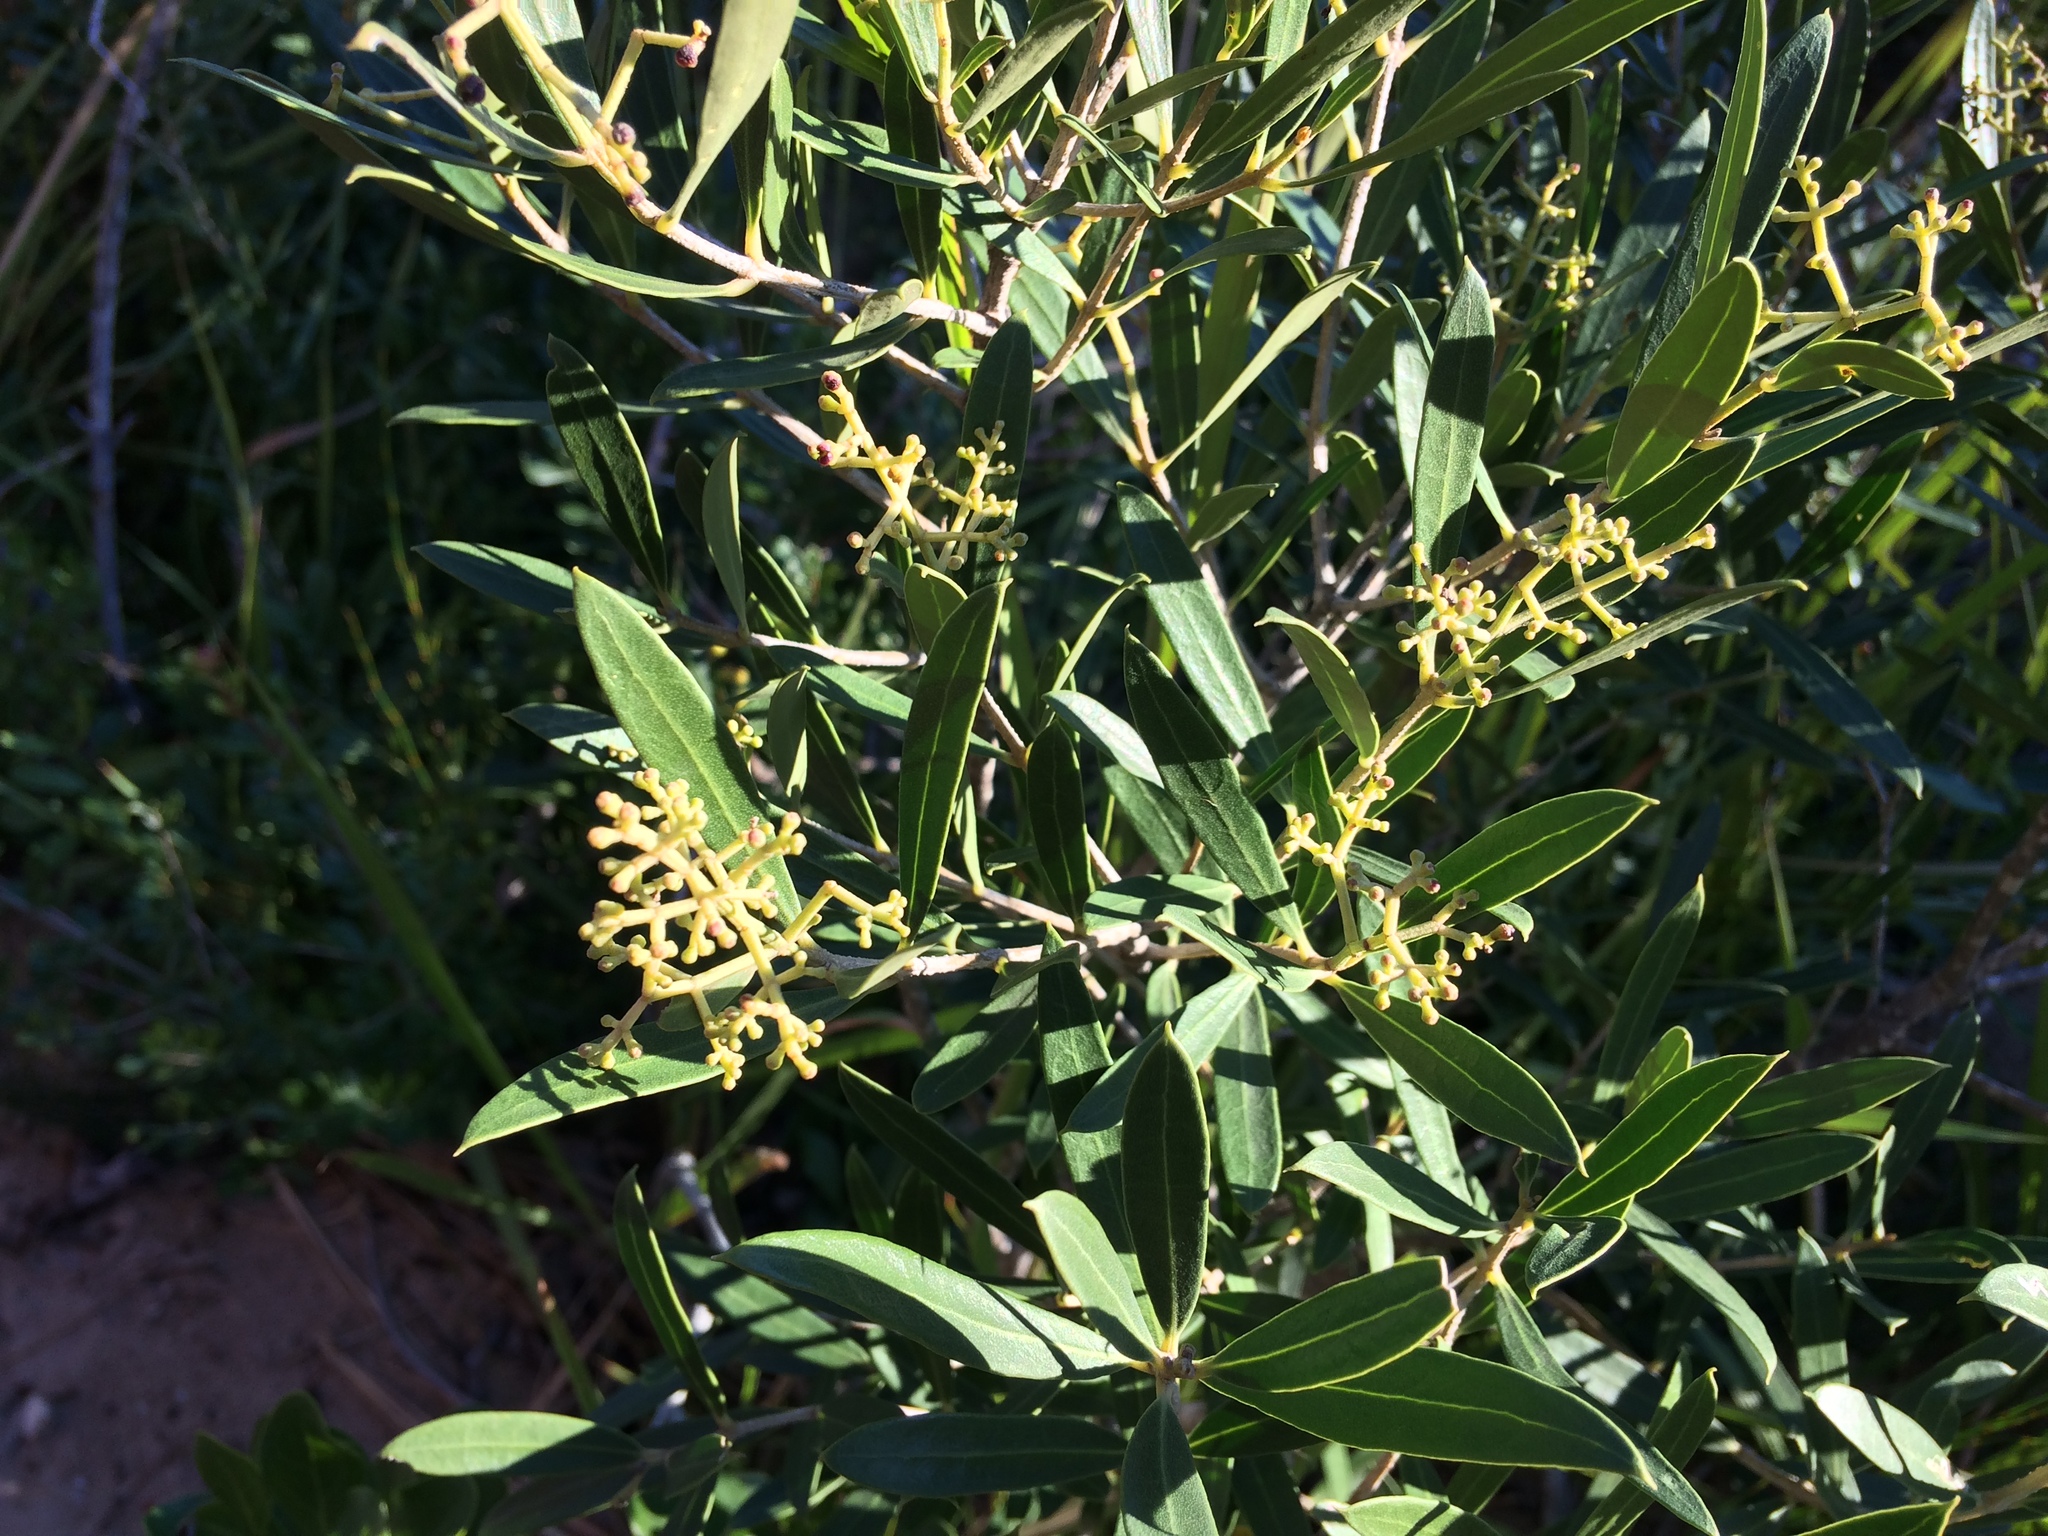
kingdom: Plantae
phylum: Tracheophyta
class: Magnoliopsida
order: Lamiales
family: Oleaceae
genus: Olea
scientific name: Olea exasperata
